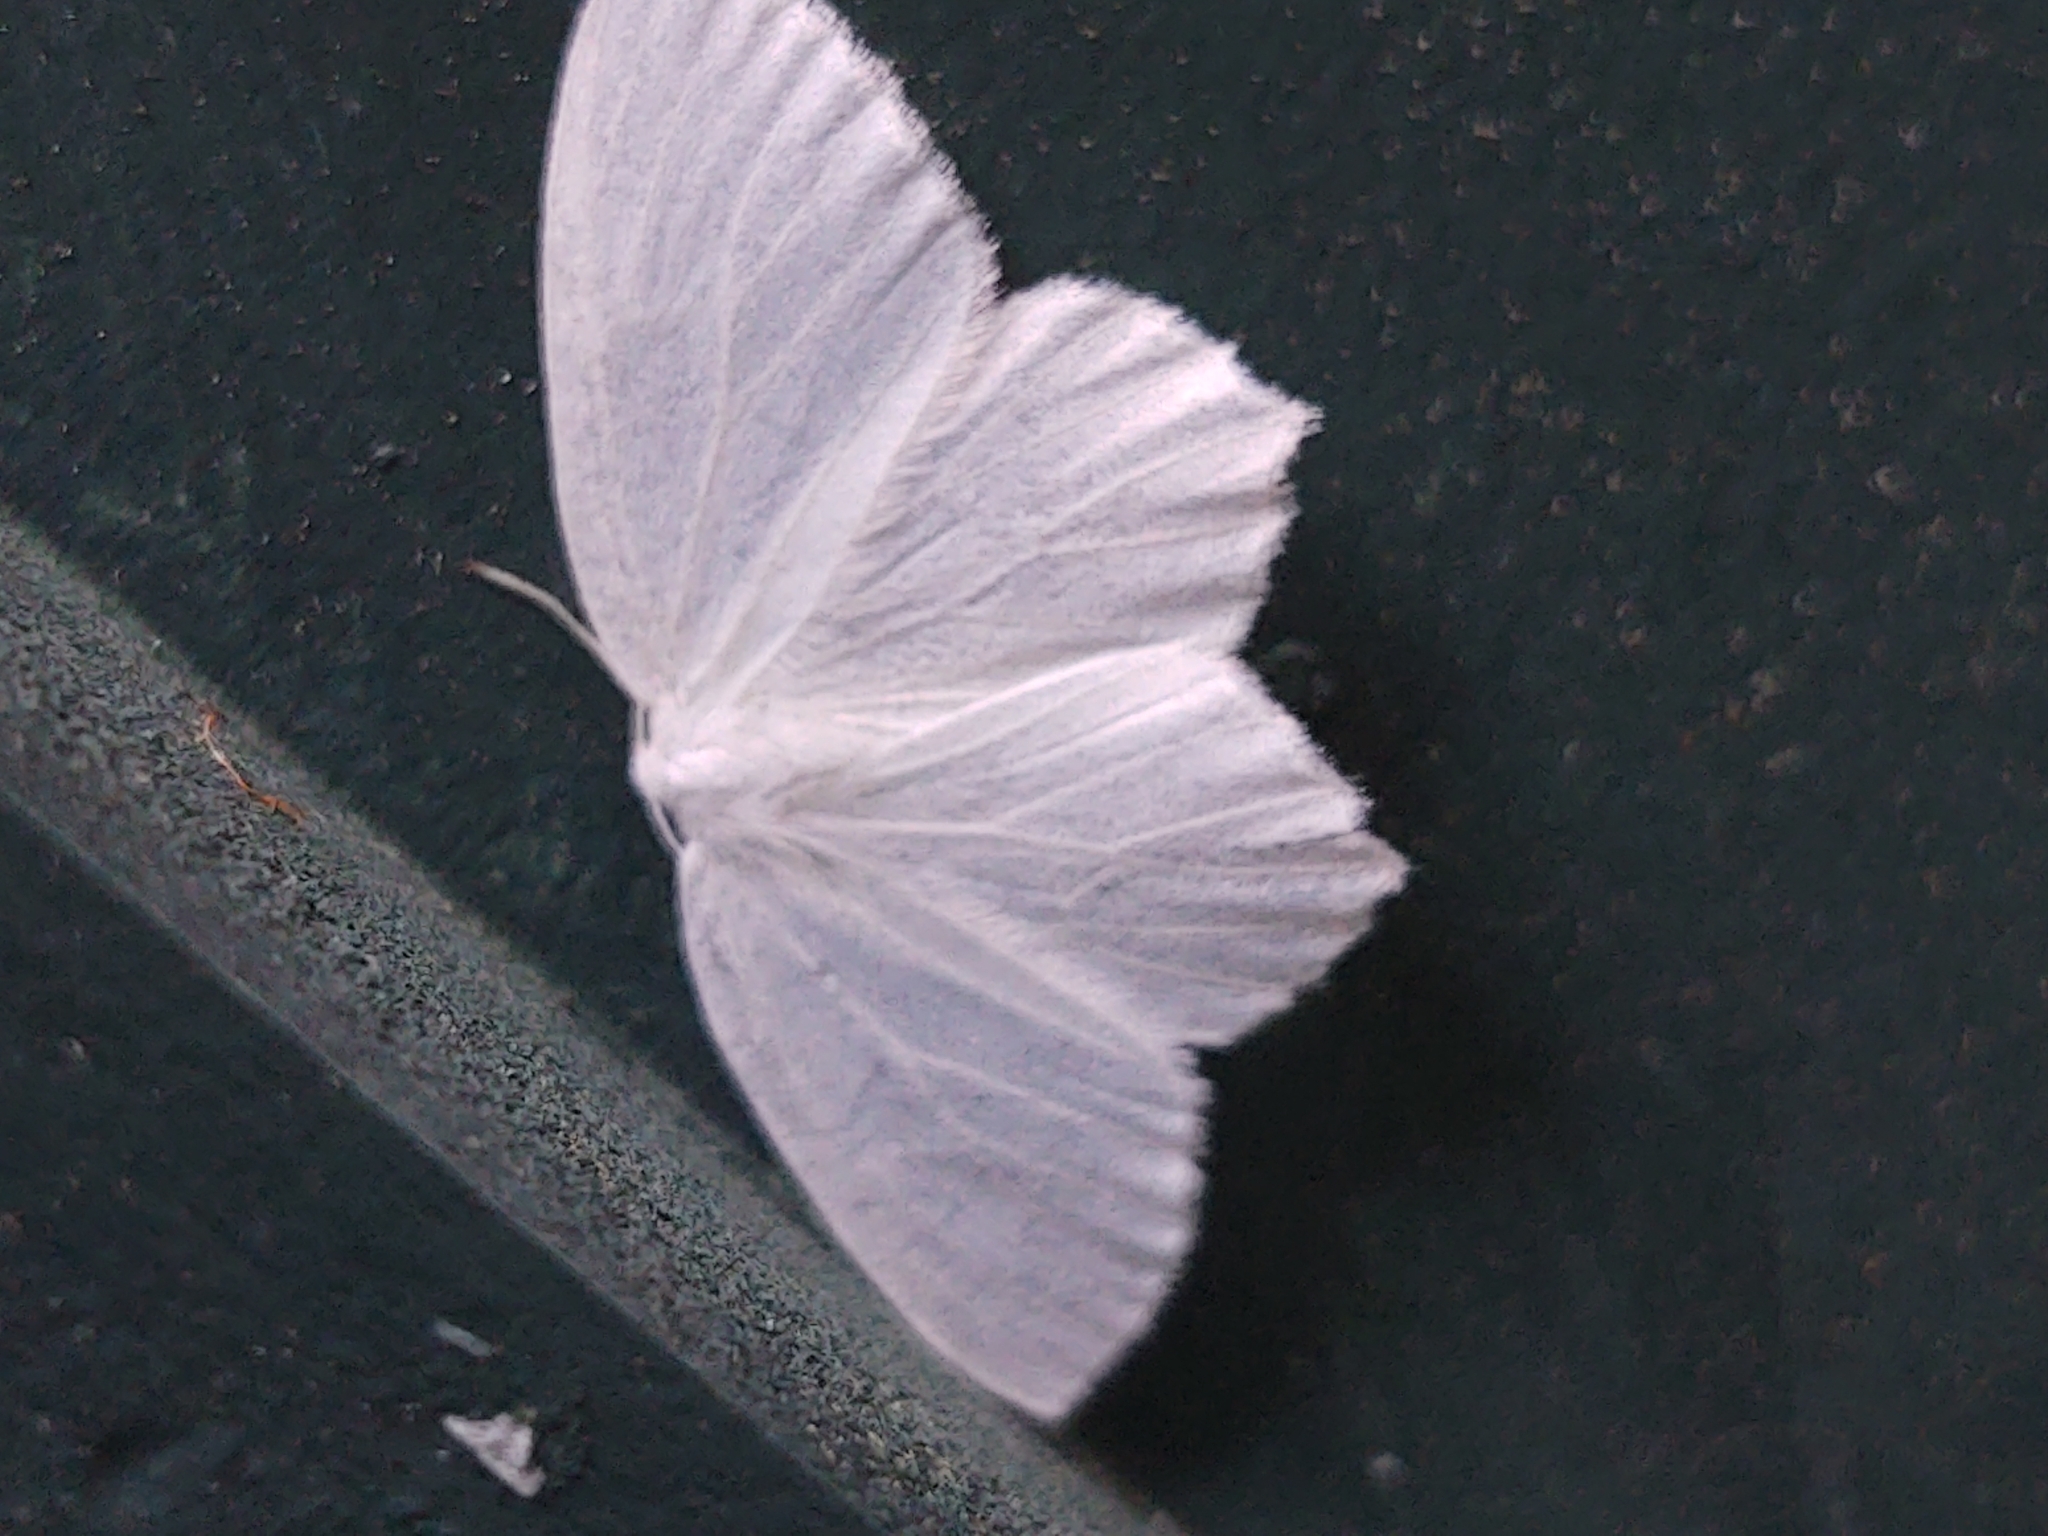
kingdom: Animalia
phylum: Arthropoda
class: Insecta
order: Lepidoptera
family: Geometridae
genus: Eugonobapta
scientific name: Eugonobapta nivosaria
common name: Snowy geometer
